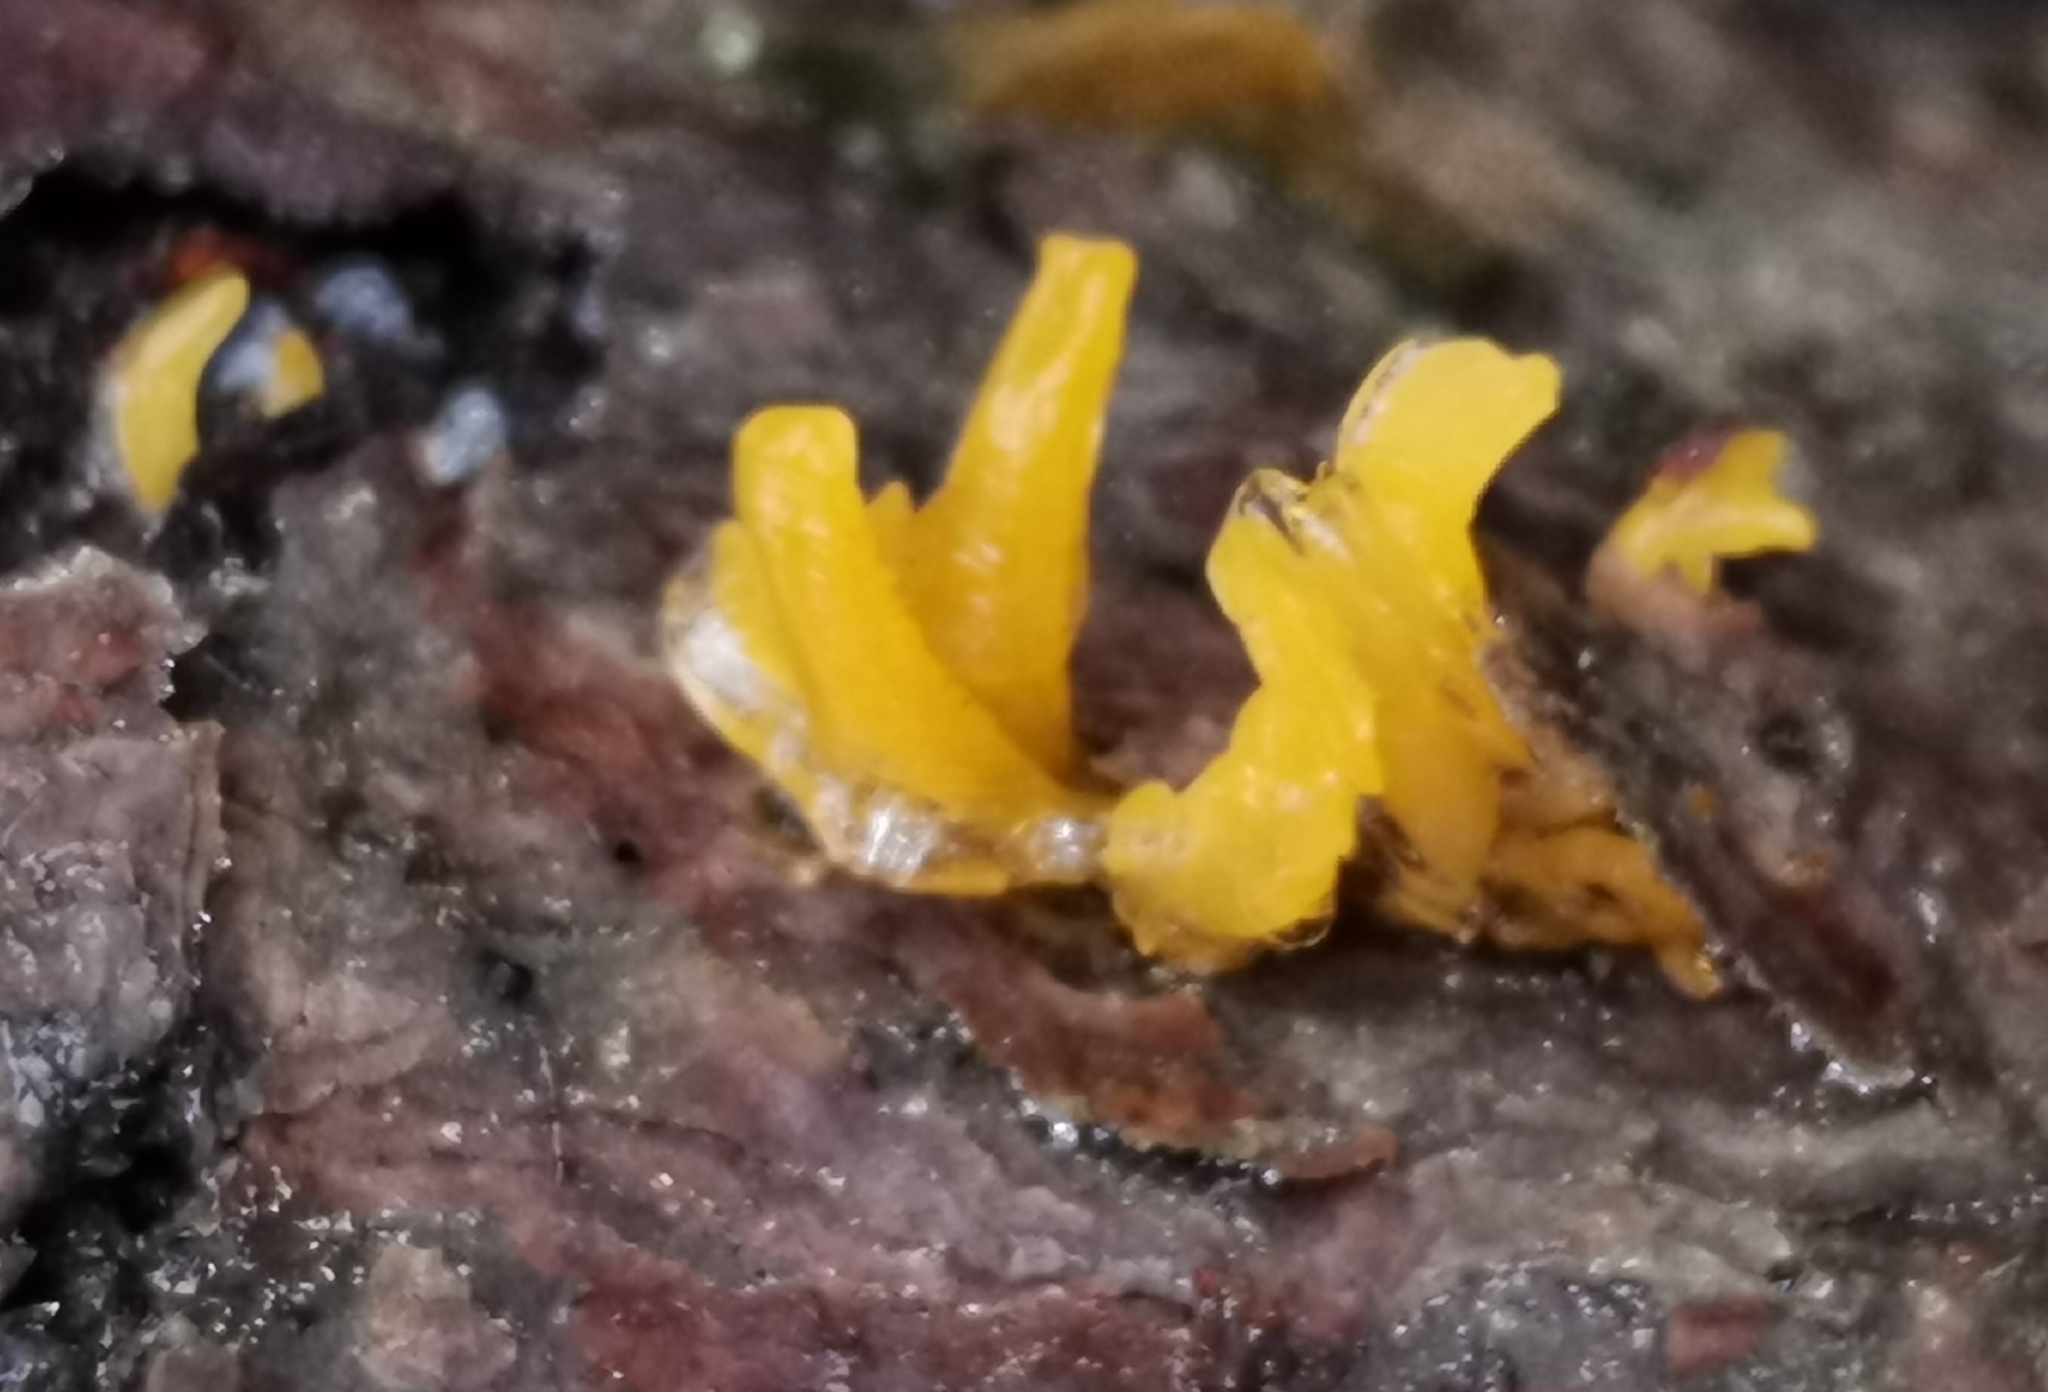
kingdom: Fungi
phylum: Basidiomycota
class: Dacrymycetes
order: Dacrymycetales
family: Dacrymycetaceae
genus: Calocera
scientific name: Calocera cornea
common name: Small stagshorn
